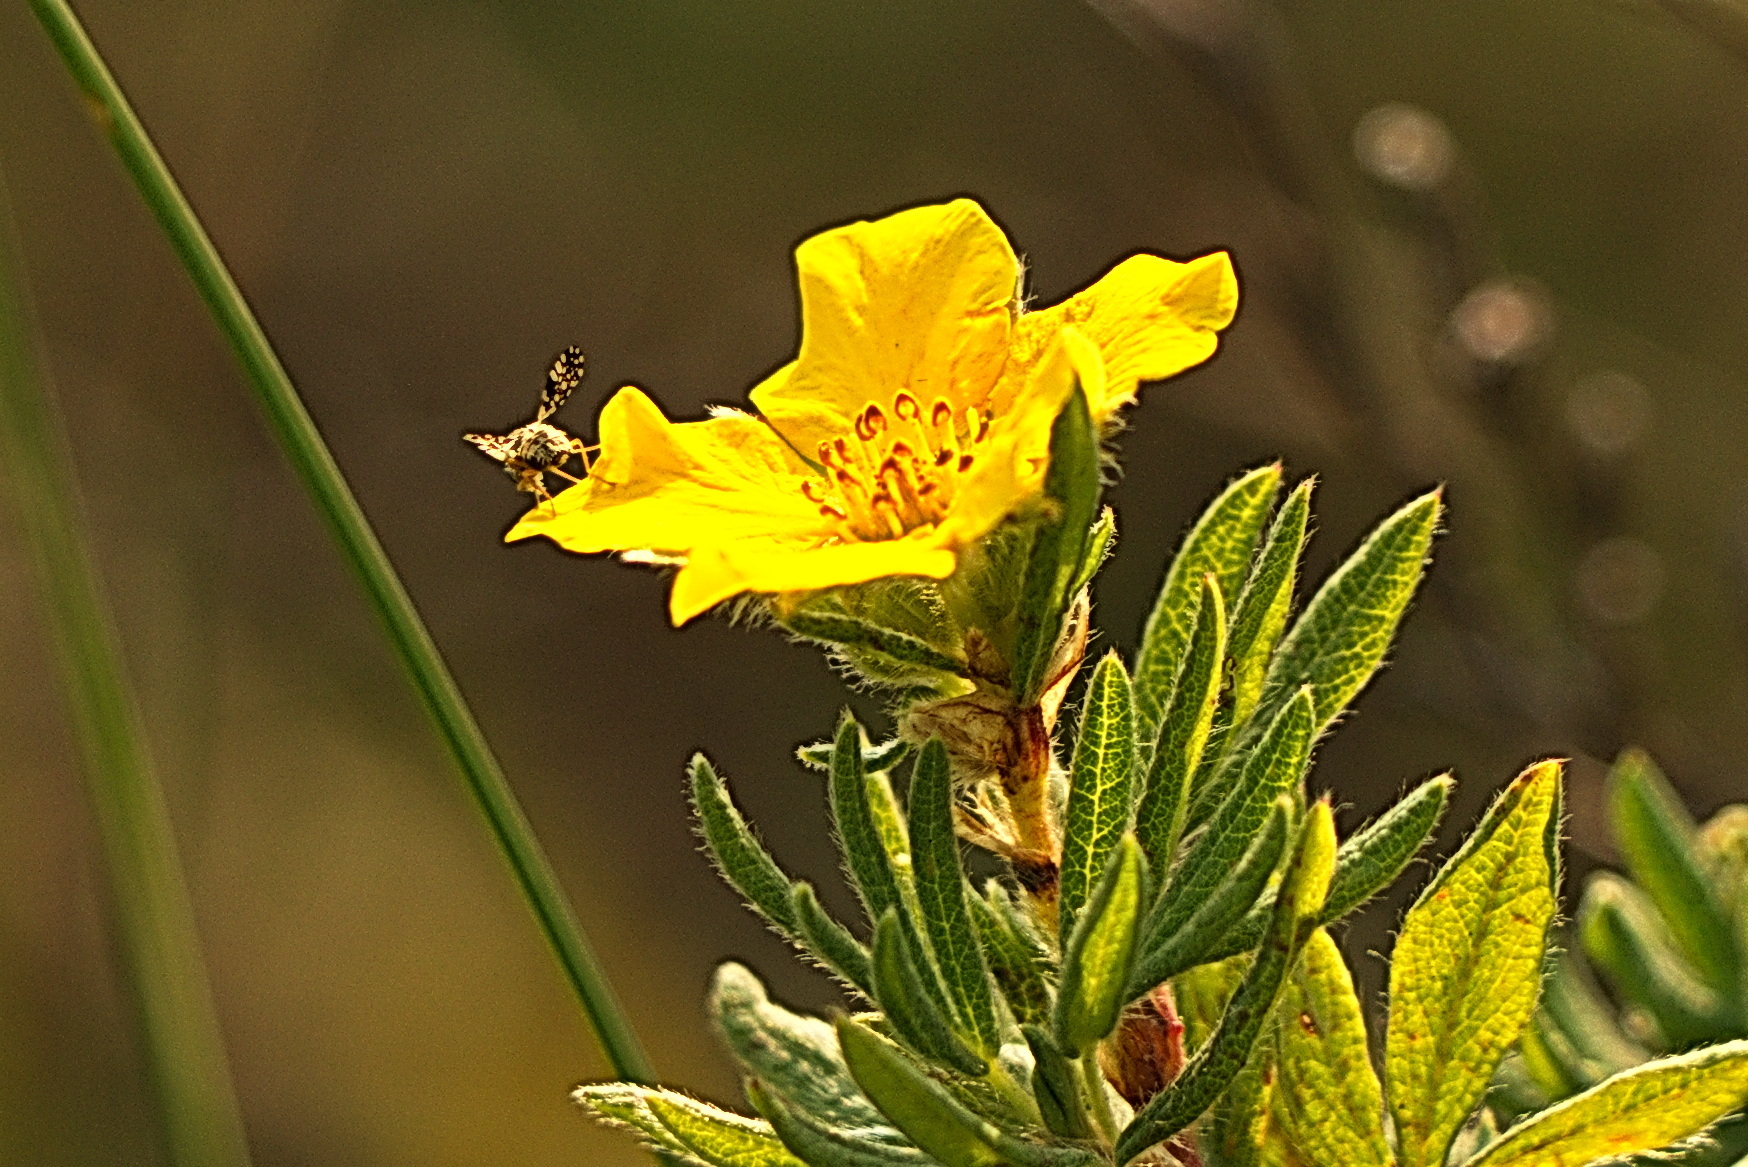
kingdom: Animalia
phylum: Arthropoda
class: Insecta
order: Diptera
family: Tephritidae
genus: Campiglossa
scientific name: Campiglossa albiceps
